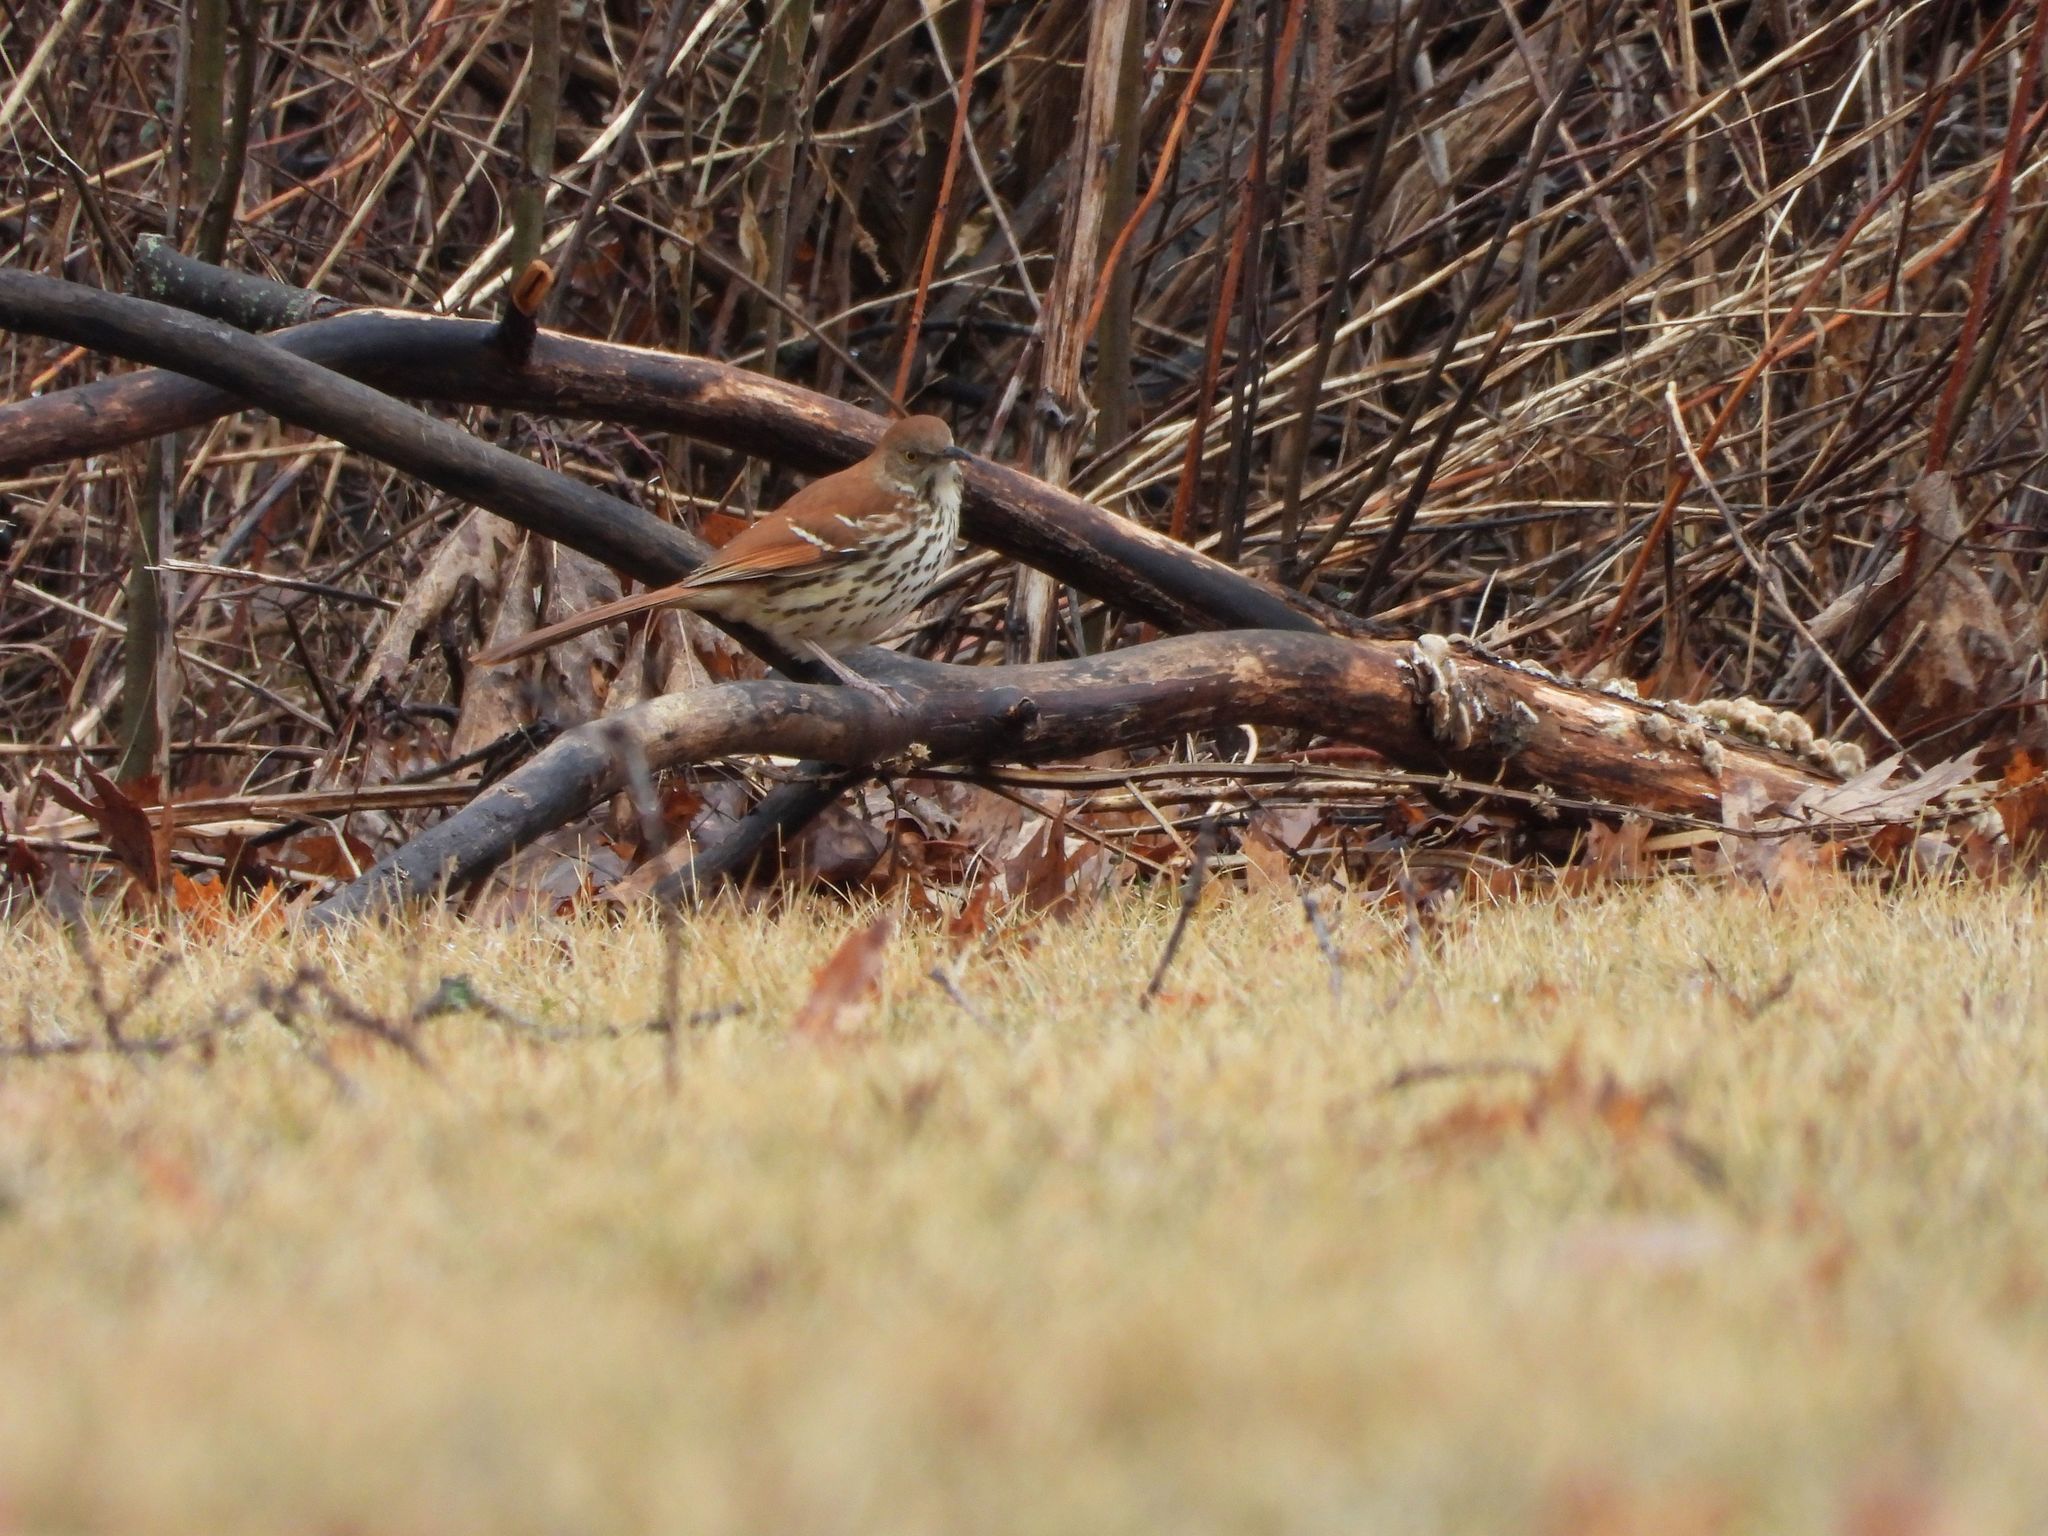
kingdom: Animalia
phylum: Chordata
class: Aves
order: Passeriformes
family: Mimidae
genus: Toxostoma
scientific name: Toxostoma rufum
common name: Brown thrasher
